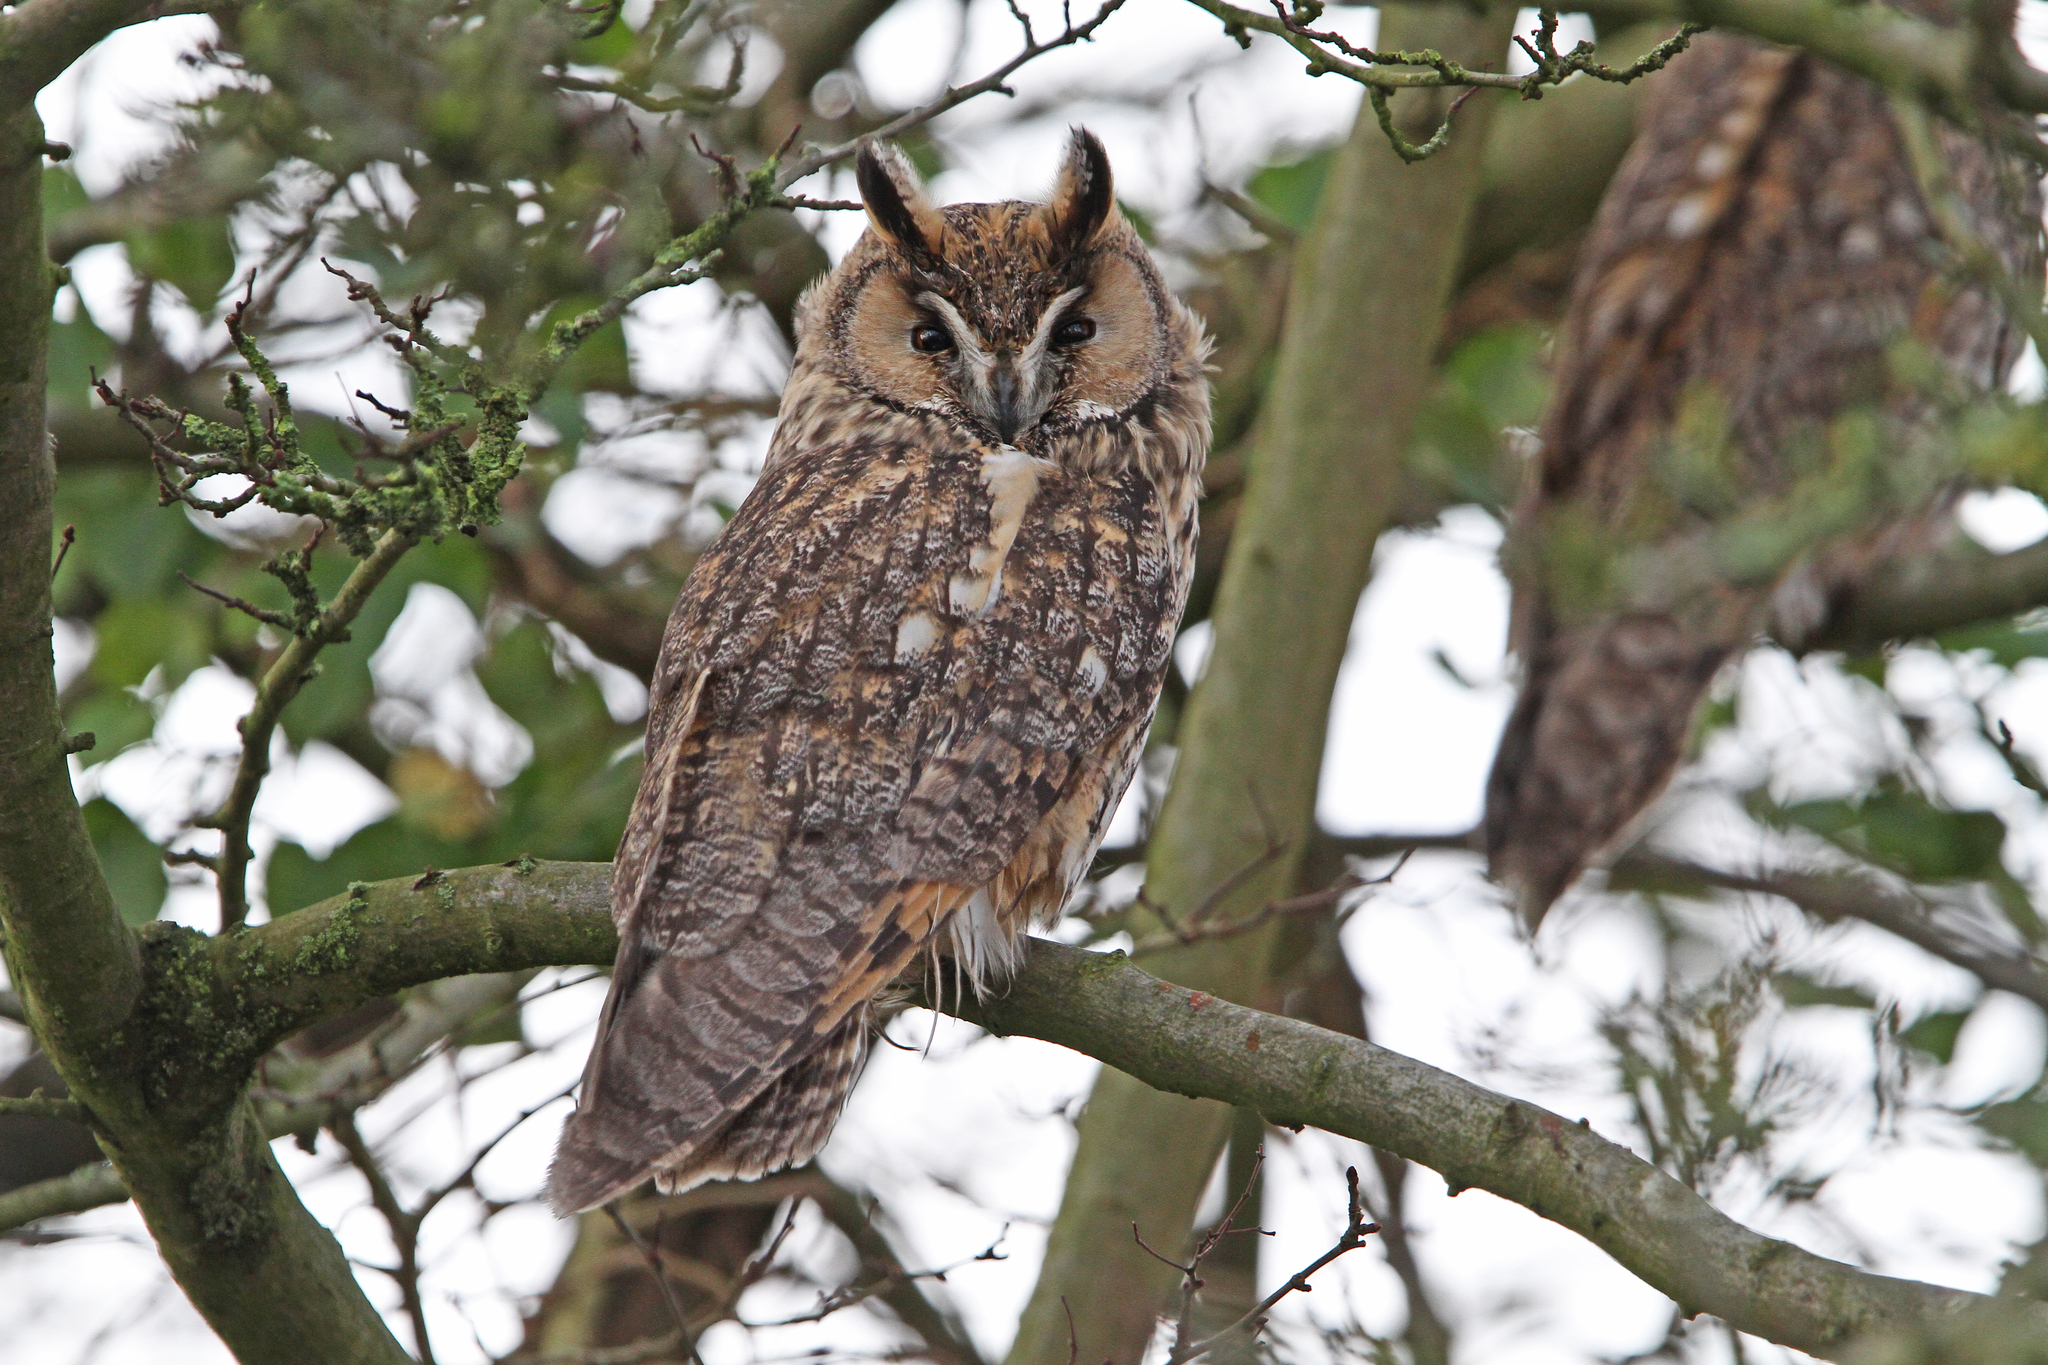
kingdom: Animalia
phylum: Chordata
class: Aves
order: Strigiformes
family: Strigidae
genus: Asio
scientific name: Asio otus
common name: Long-eared owl
